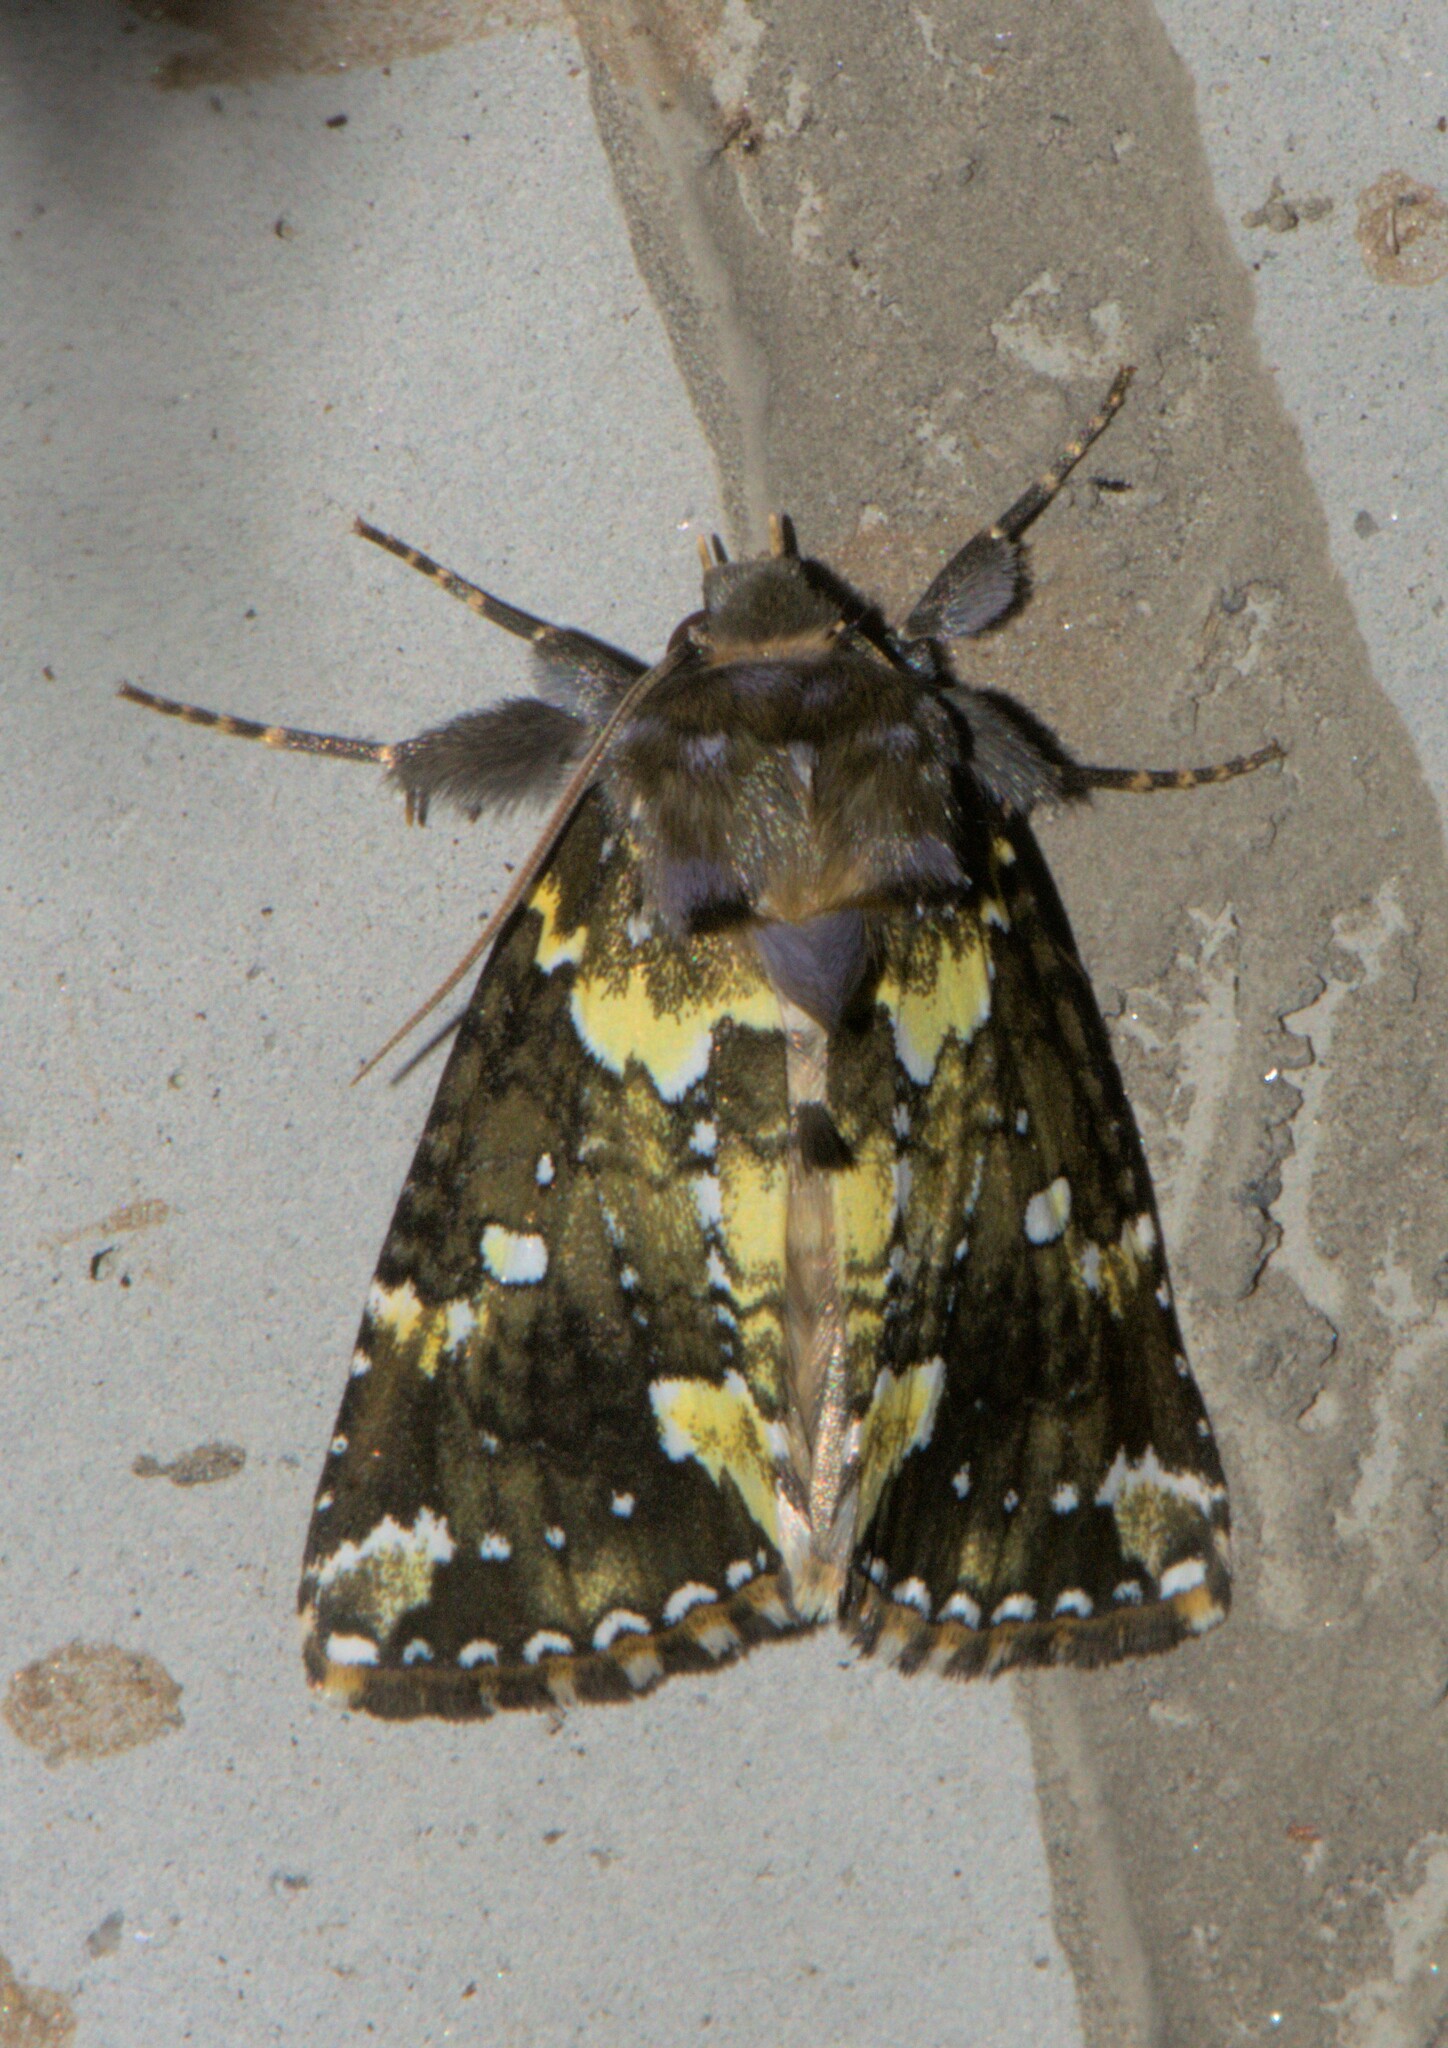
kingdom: Animalia
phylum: Arthropoda
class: Insecta
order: Lepidoptera
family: Drepanidae
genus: Gaurena
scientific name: Gaurena florens
